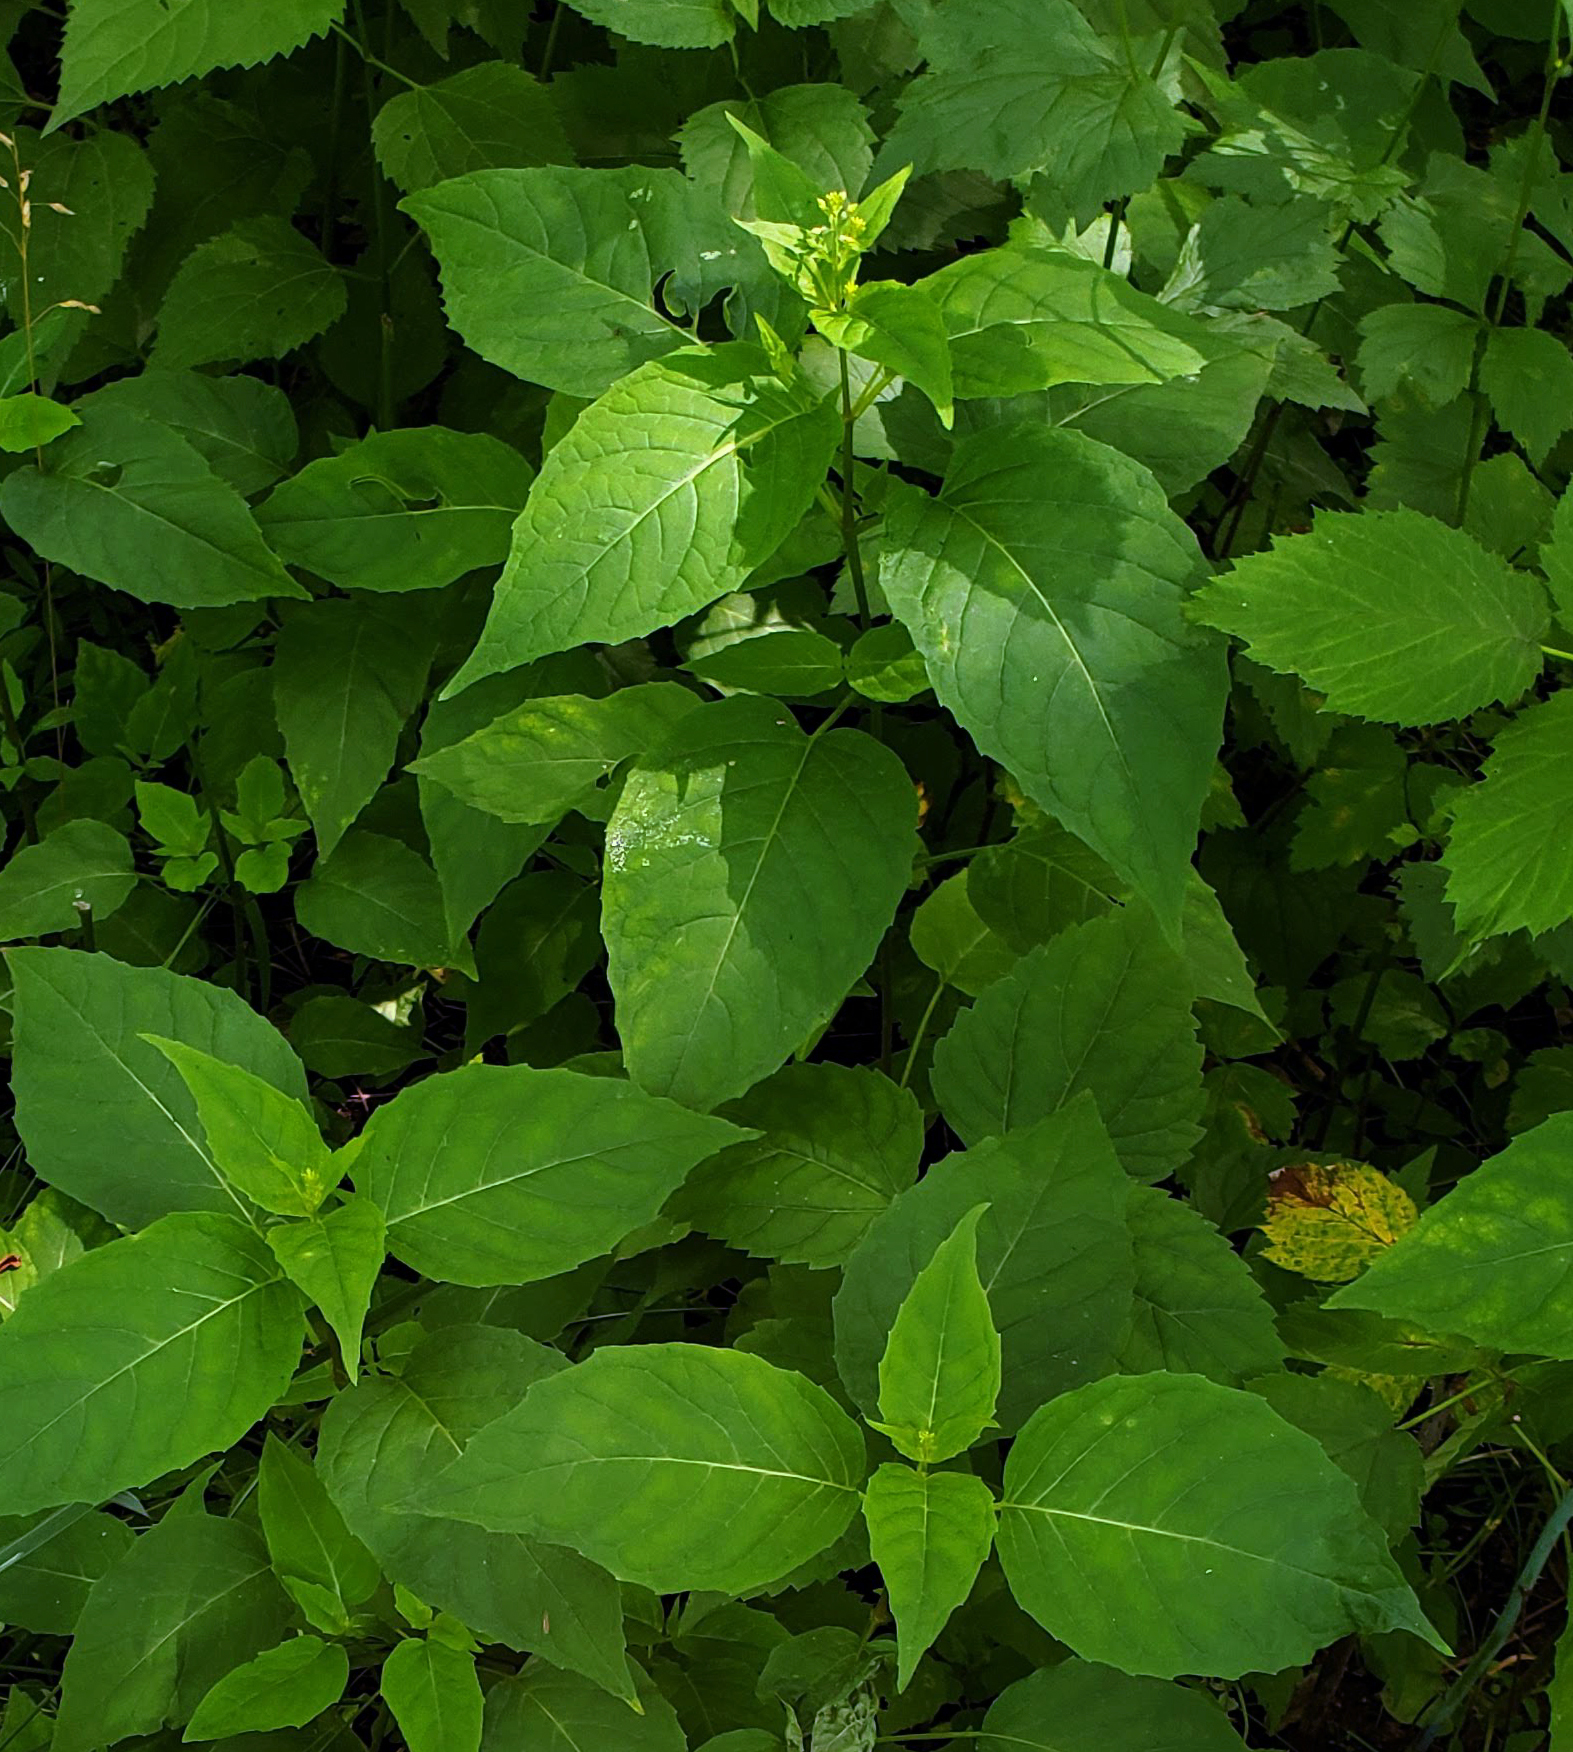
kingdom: Plantae
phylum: Tracheophyta
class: Magnoliopsida
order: Myrtales
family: Onagraceae
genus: Circaea
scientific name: Circaea canadensis
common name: Broad-leaved enchanter's nightshade
